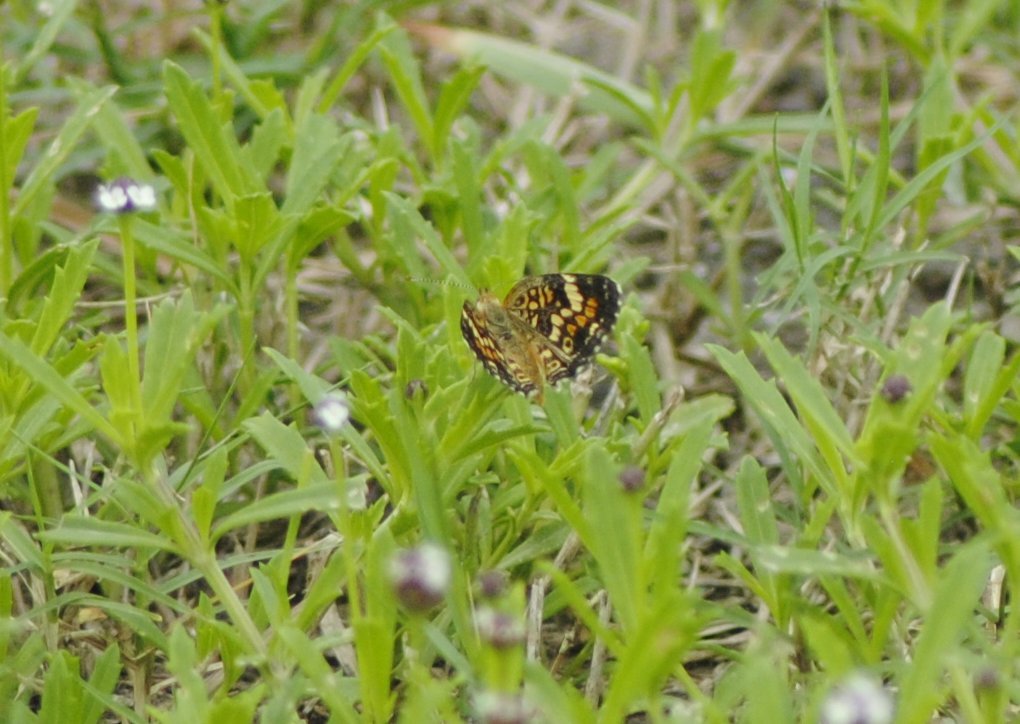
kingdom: Animalia
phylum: Arthropoda
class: Insecta
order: Lepidoptera
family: Nymphalidae
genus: Phyciodes
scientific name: Phyciodes phaon
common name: Phaon crescent
